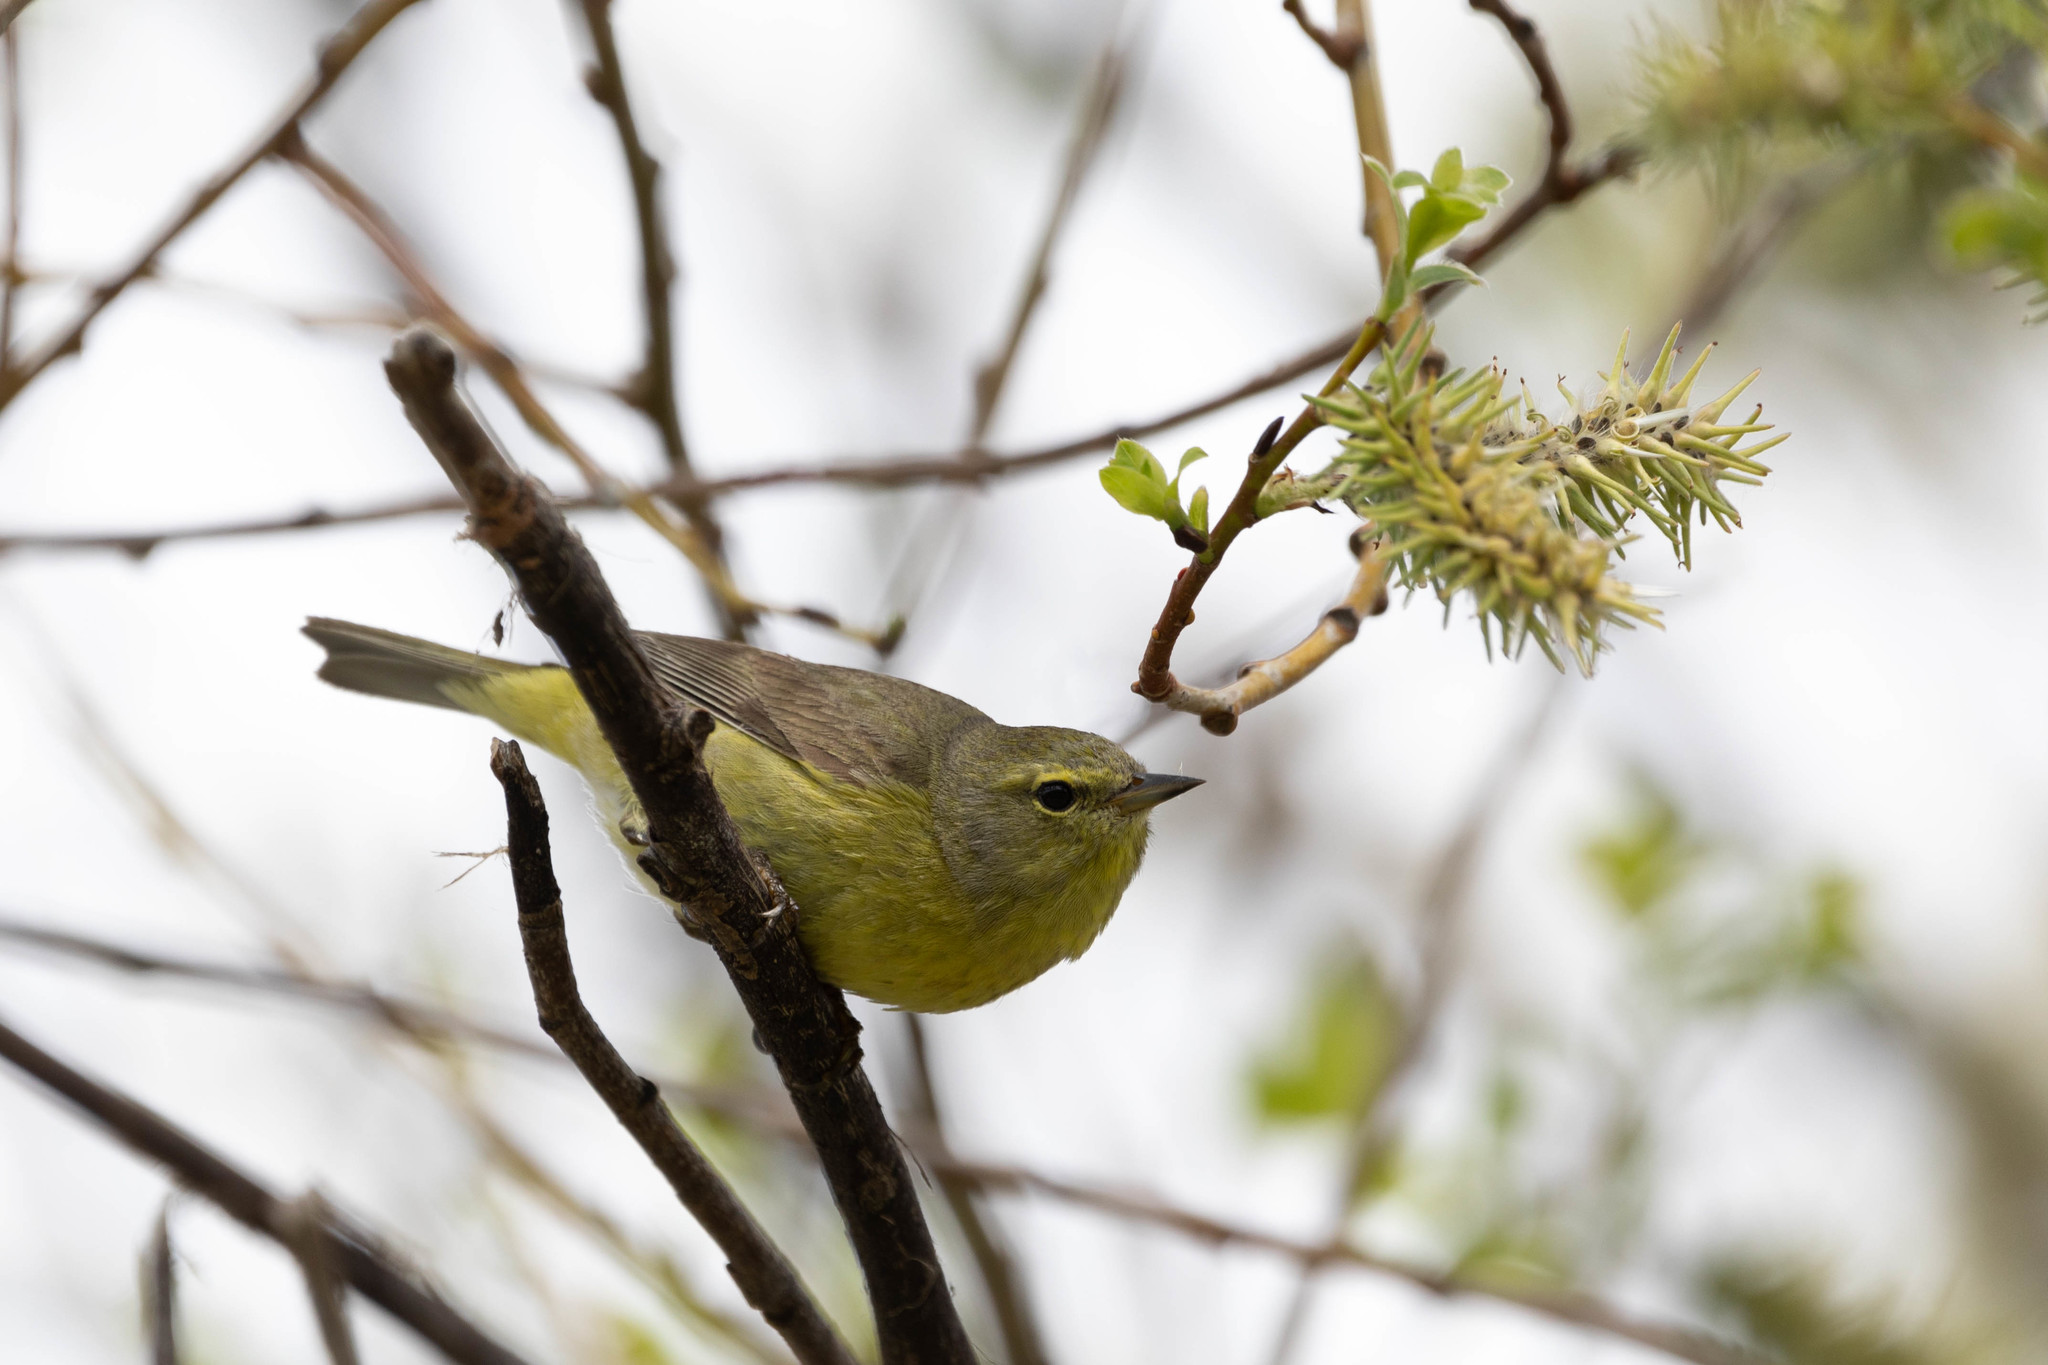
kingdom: Animalia
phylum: Chordata
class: Aves
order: Passeriformes
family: Parulidae
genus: Leiothlypis
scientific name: Leiothlypis celata
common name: Orange-crowned warbler
